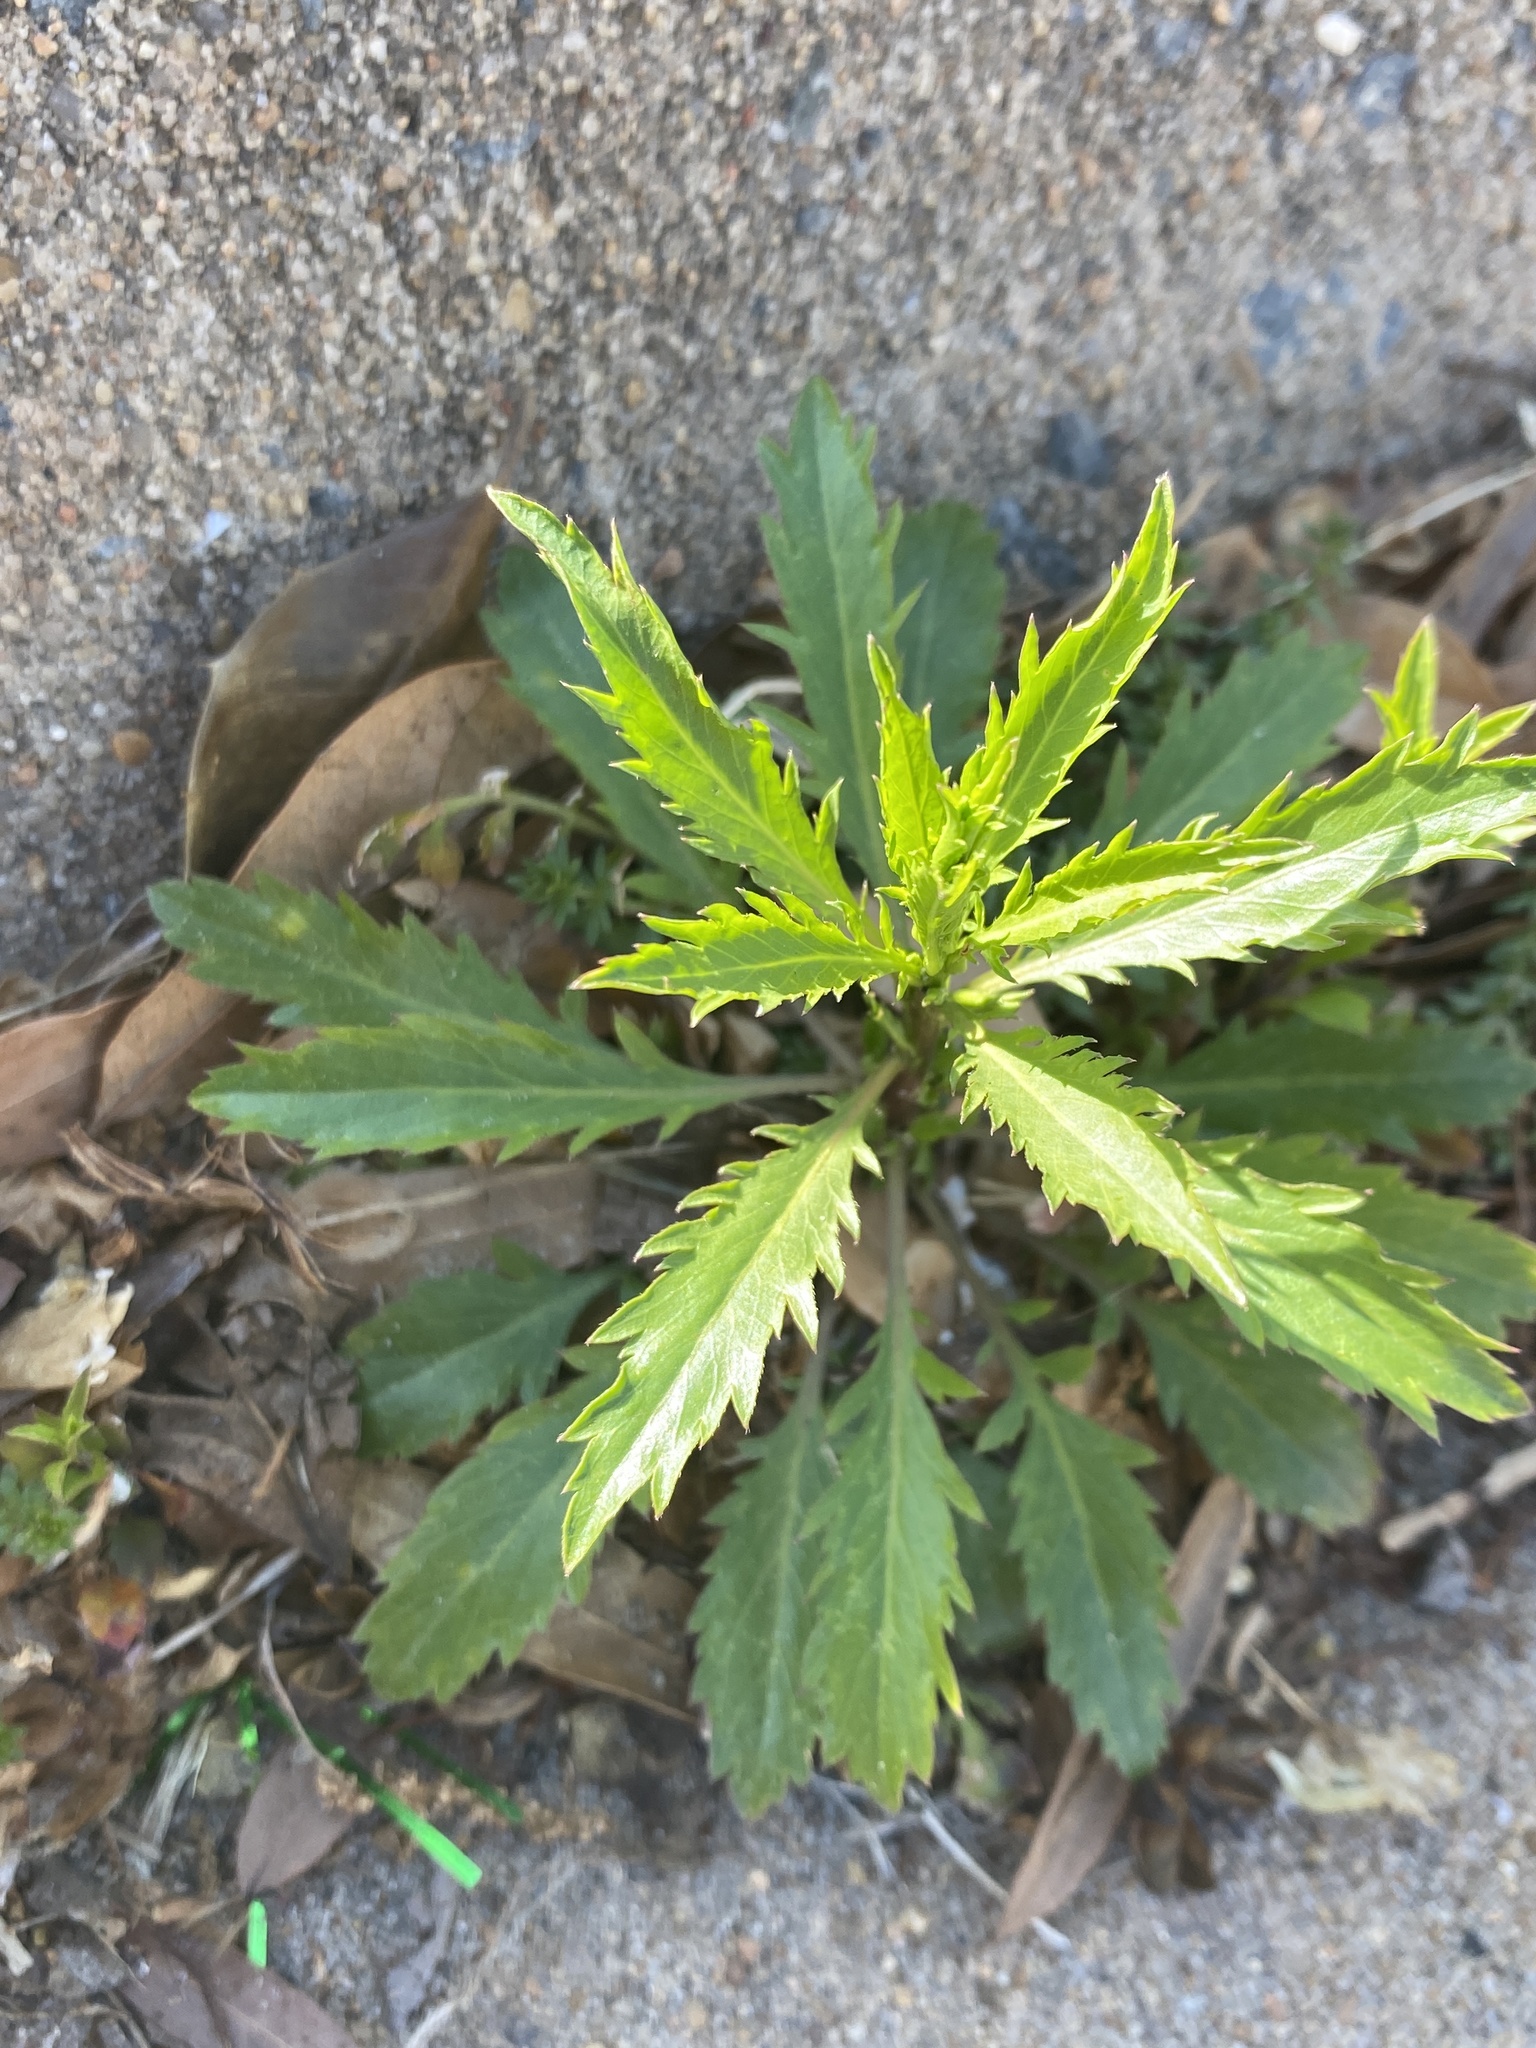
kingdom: Plantae
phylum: Tracheophyta
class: Magnoliopsida
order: Brassicales
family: Brassicaceae
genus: Lepidium
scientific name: Lepidium virginicum
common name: Least pepperwort
